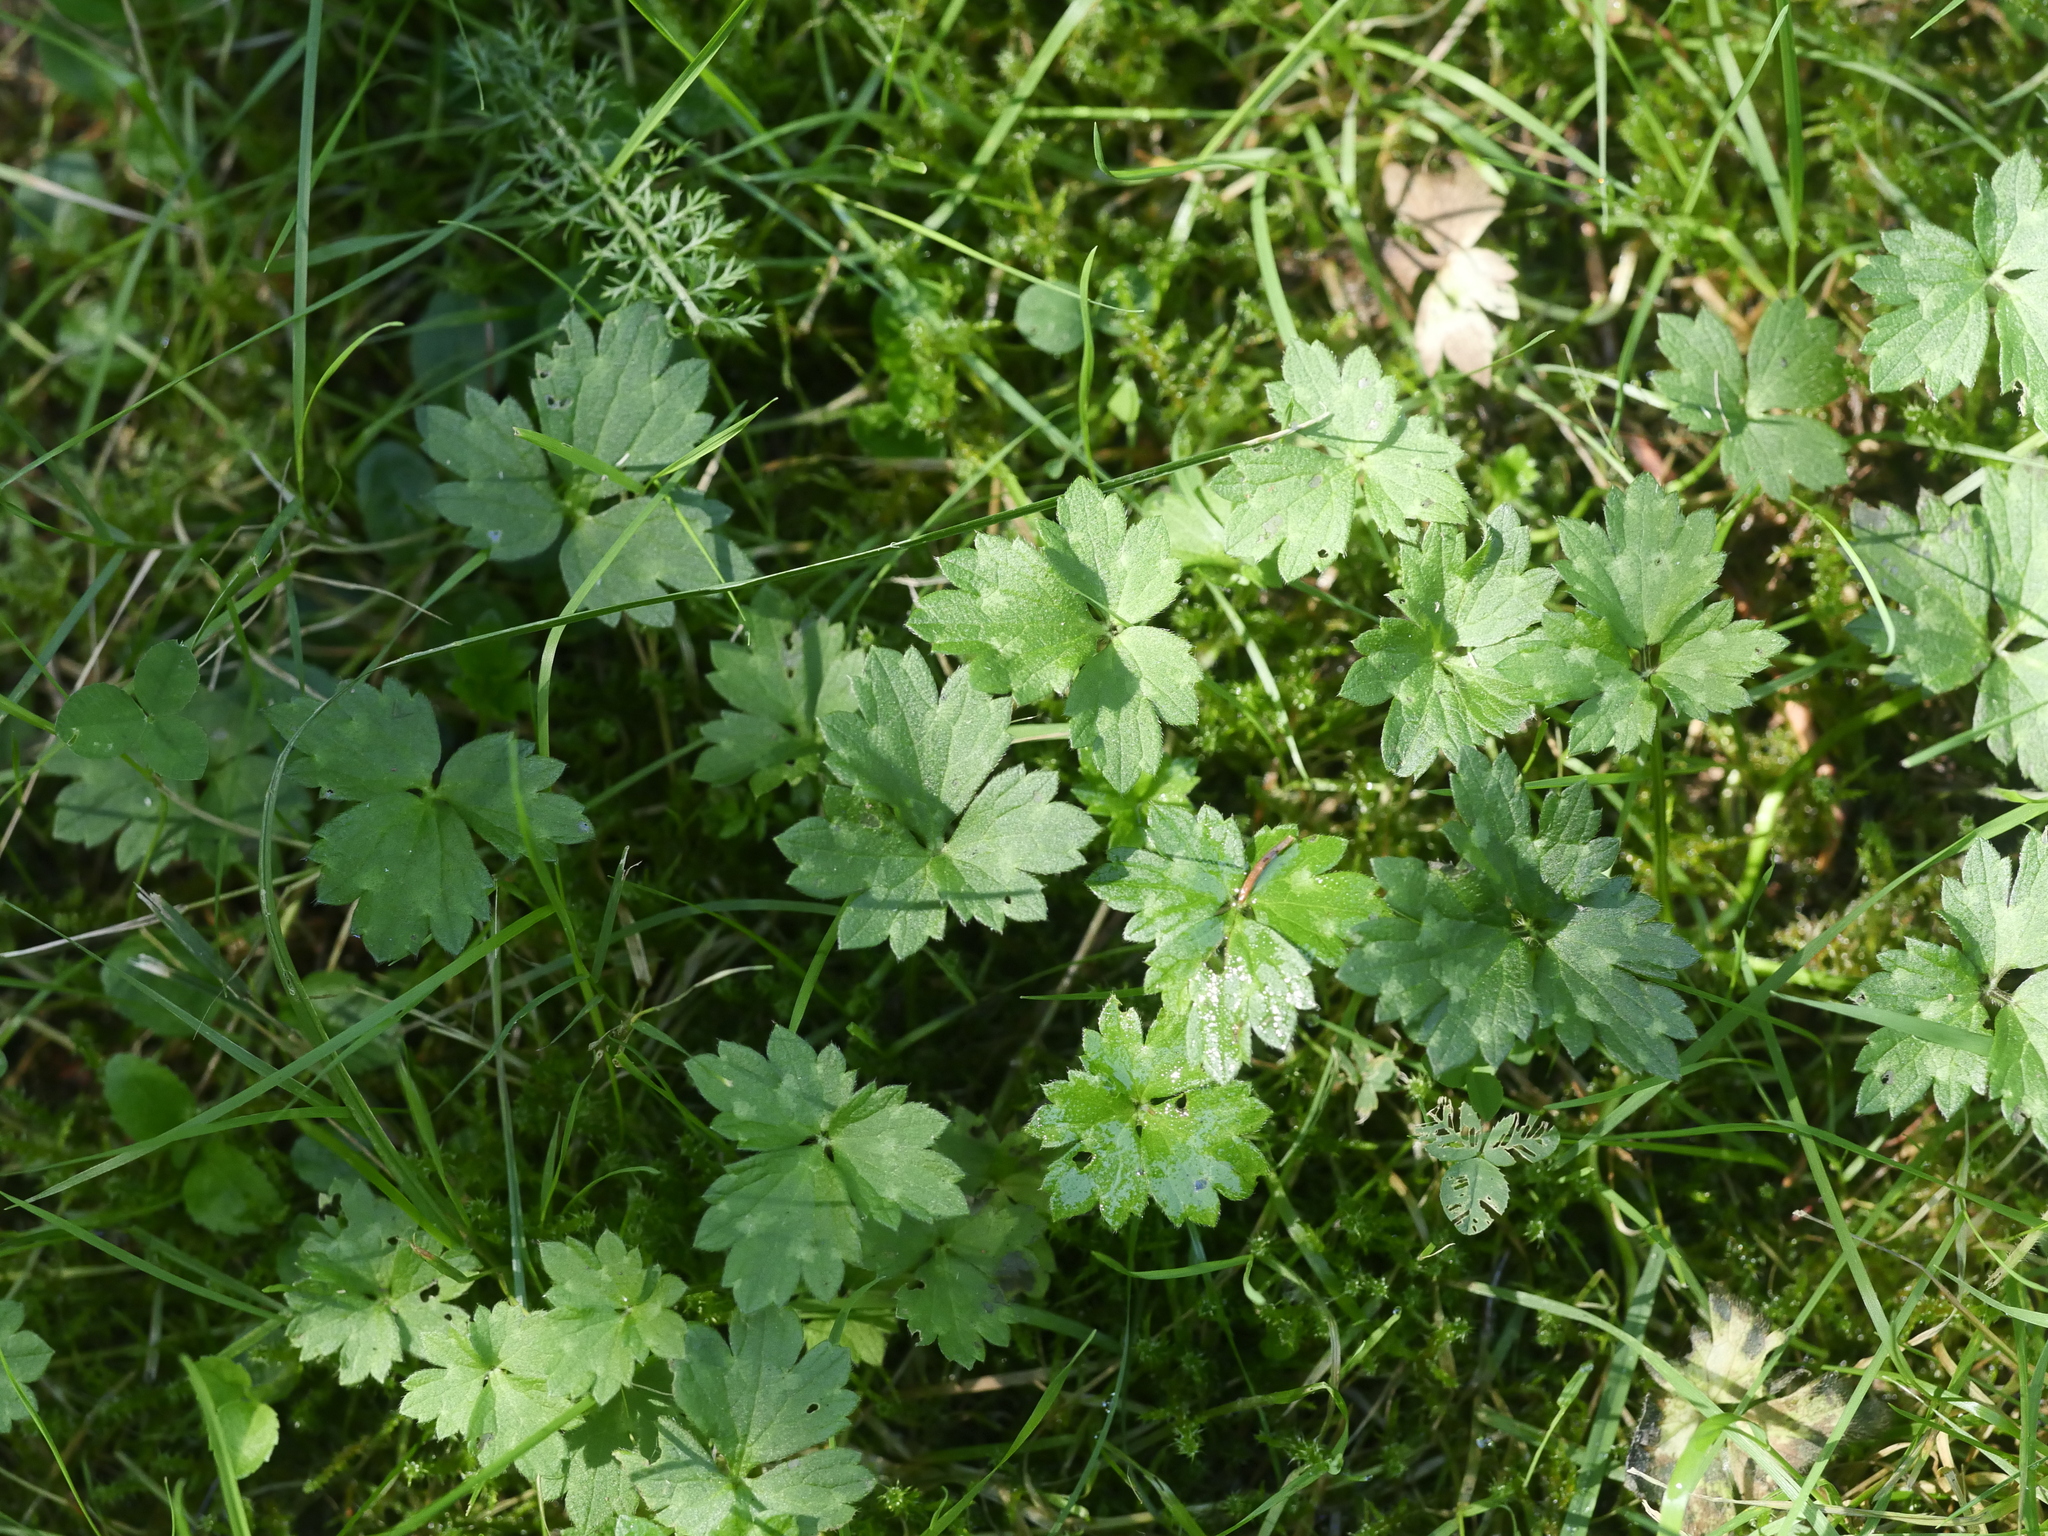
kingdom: Plantae
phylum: Tracheophyta
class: Magnoliopsida
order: Ranunculales
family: Ranunculaceae
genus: Ranunculus
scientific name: Ranunculus repens
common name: Creeping buttercup
